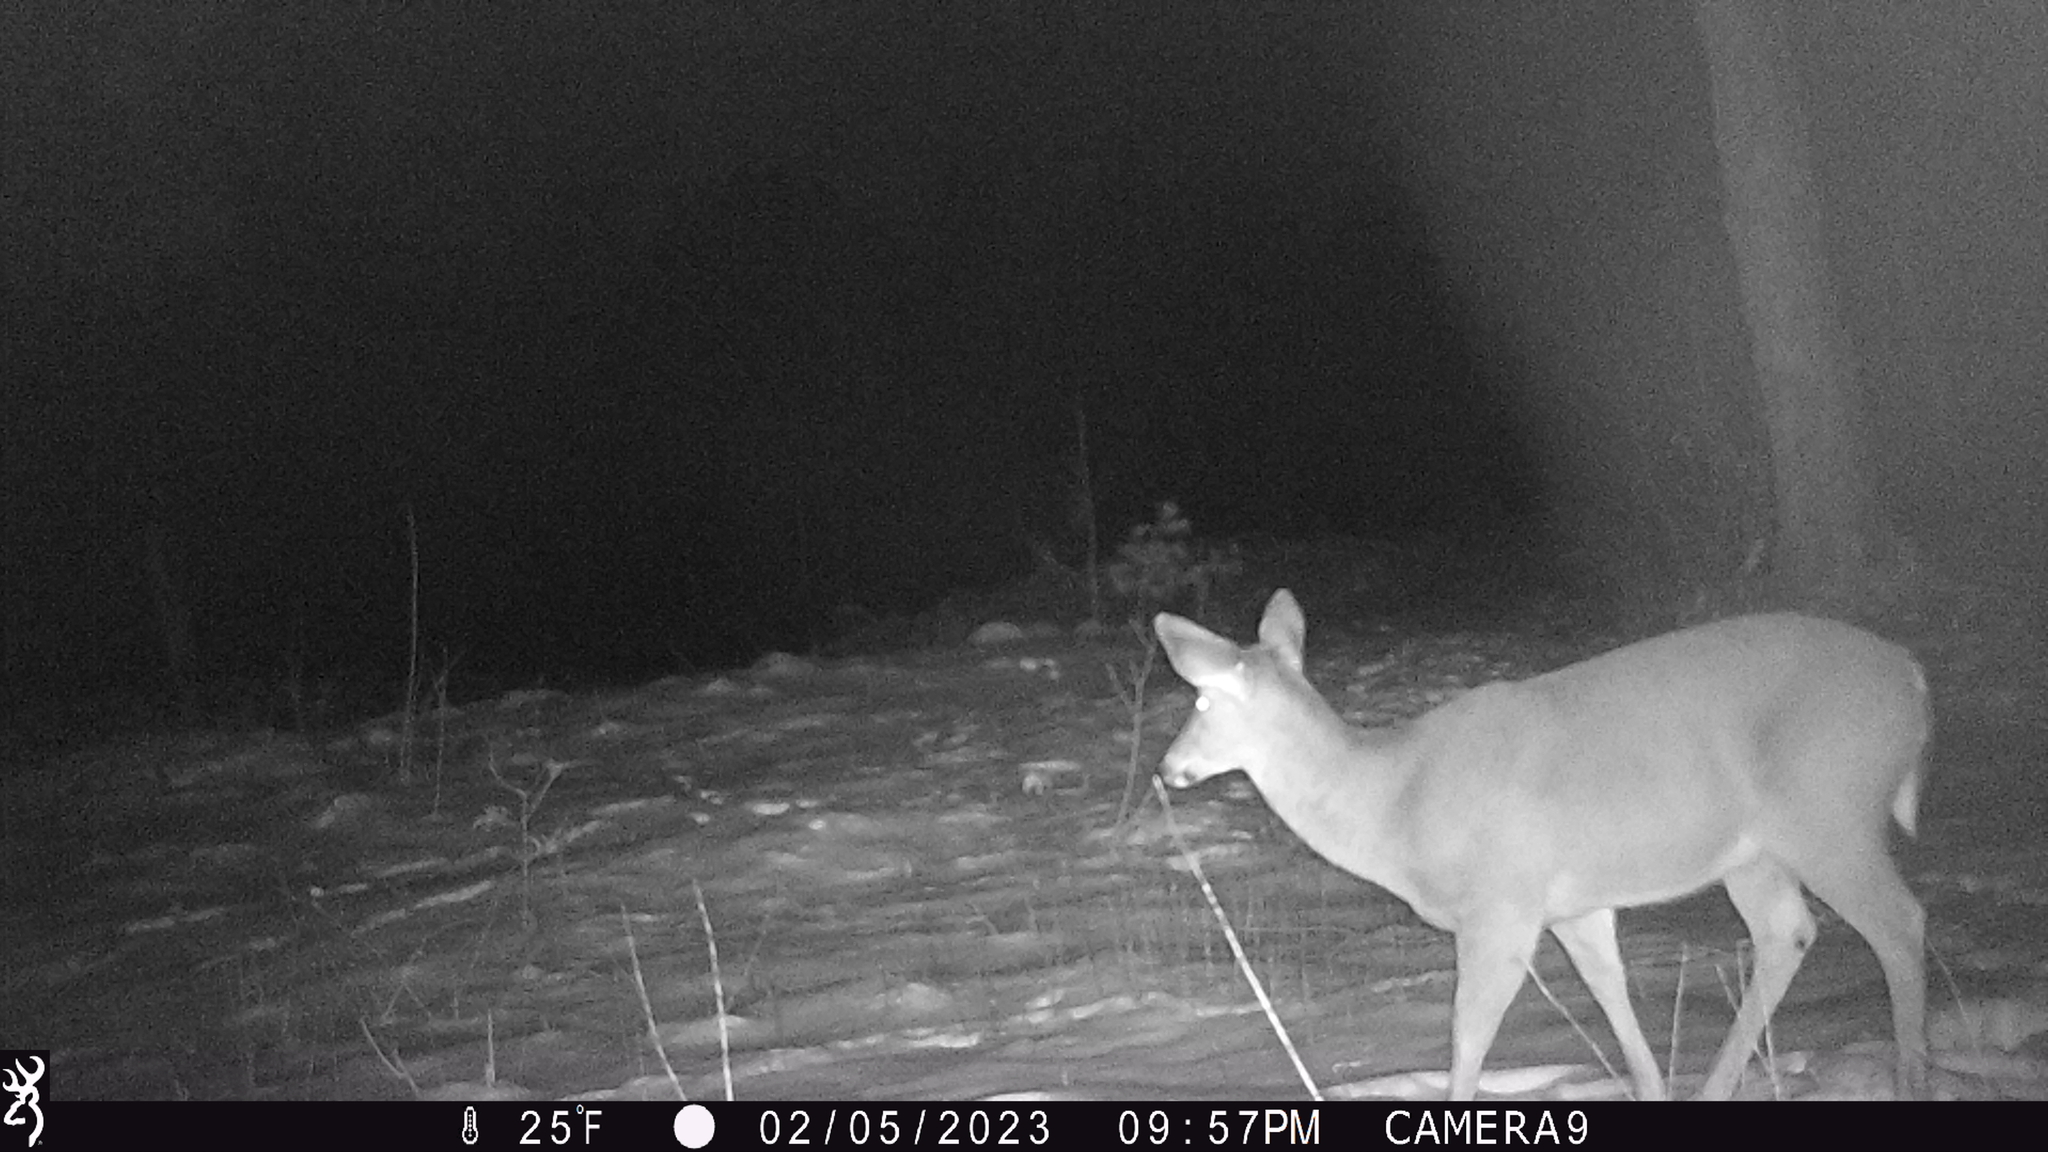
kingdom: Animalia
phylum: Chordata
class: Mammalia
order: Artiodactyla
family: Cervidae
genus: Odocoileus
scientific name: Odocoileus virginianus
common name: White-tailed deer
